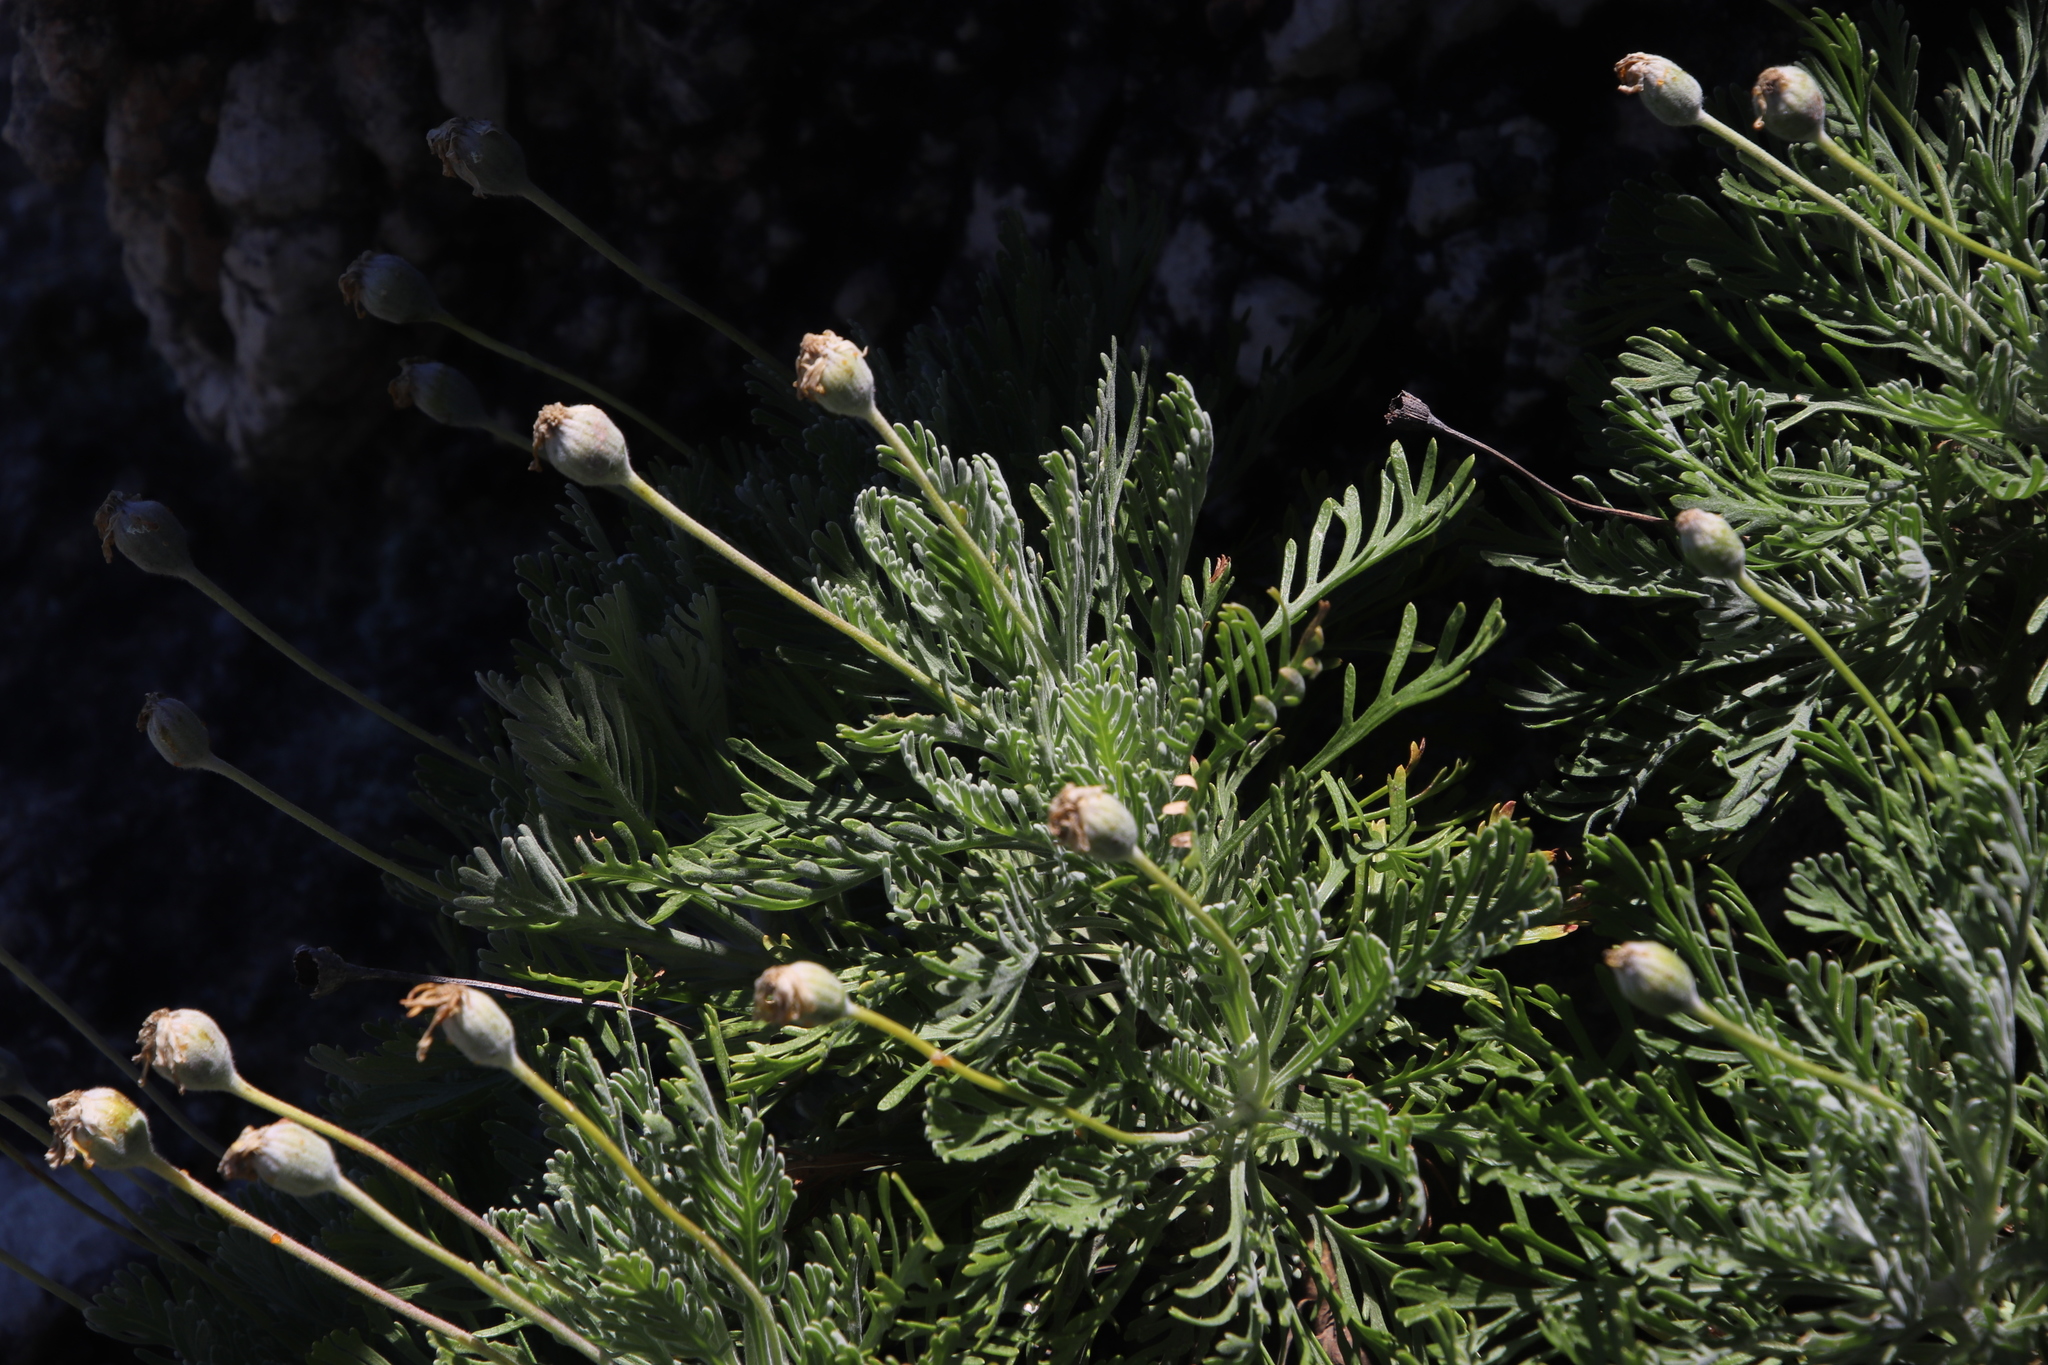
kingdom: Plantae
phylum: Tracheophyta
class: Magnoliopsida
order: Asterales
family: Asteraceae
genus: Euryops
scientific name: Euryops pectinatus
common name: Gray-leaf euryops
